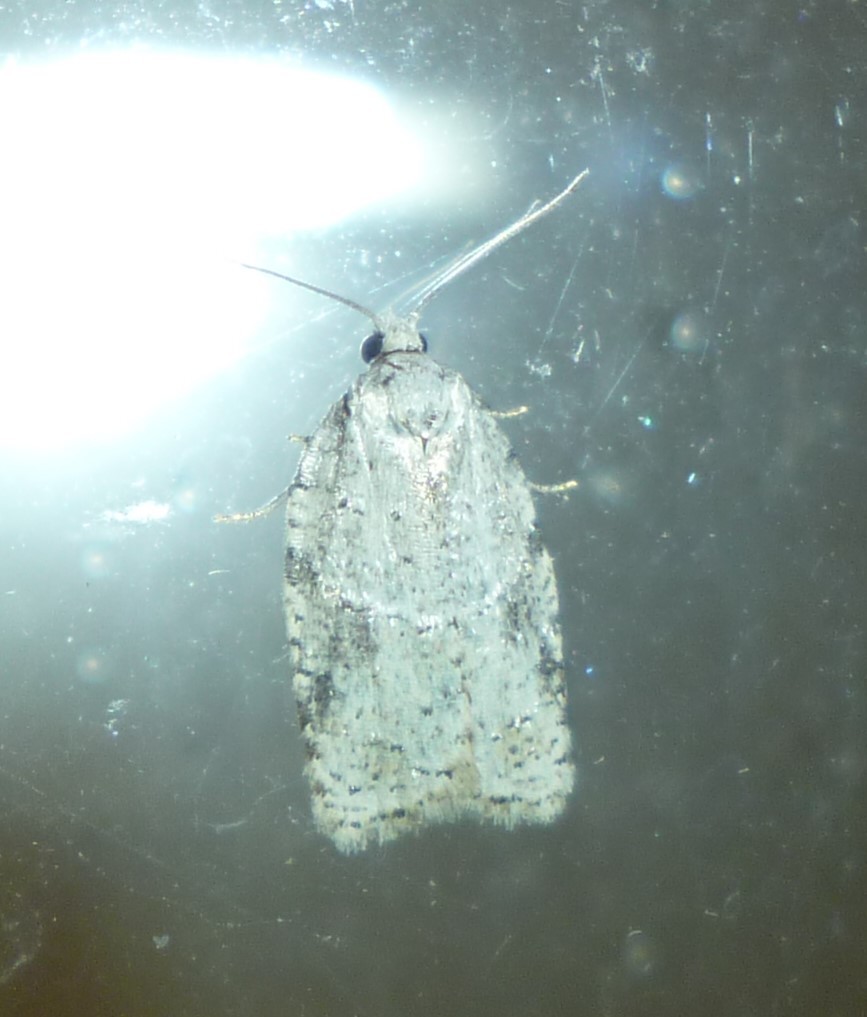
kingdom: Animalia
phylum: Arthropoda
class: Insecta
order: Lepidoptera
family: Tortricidae
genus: Acleris
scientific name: Acleris placidana
